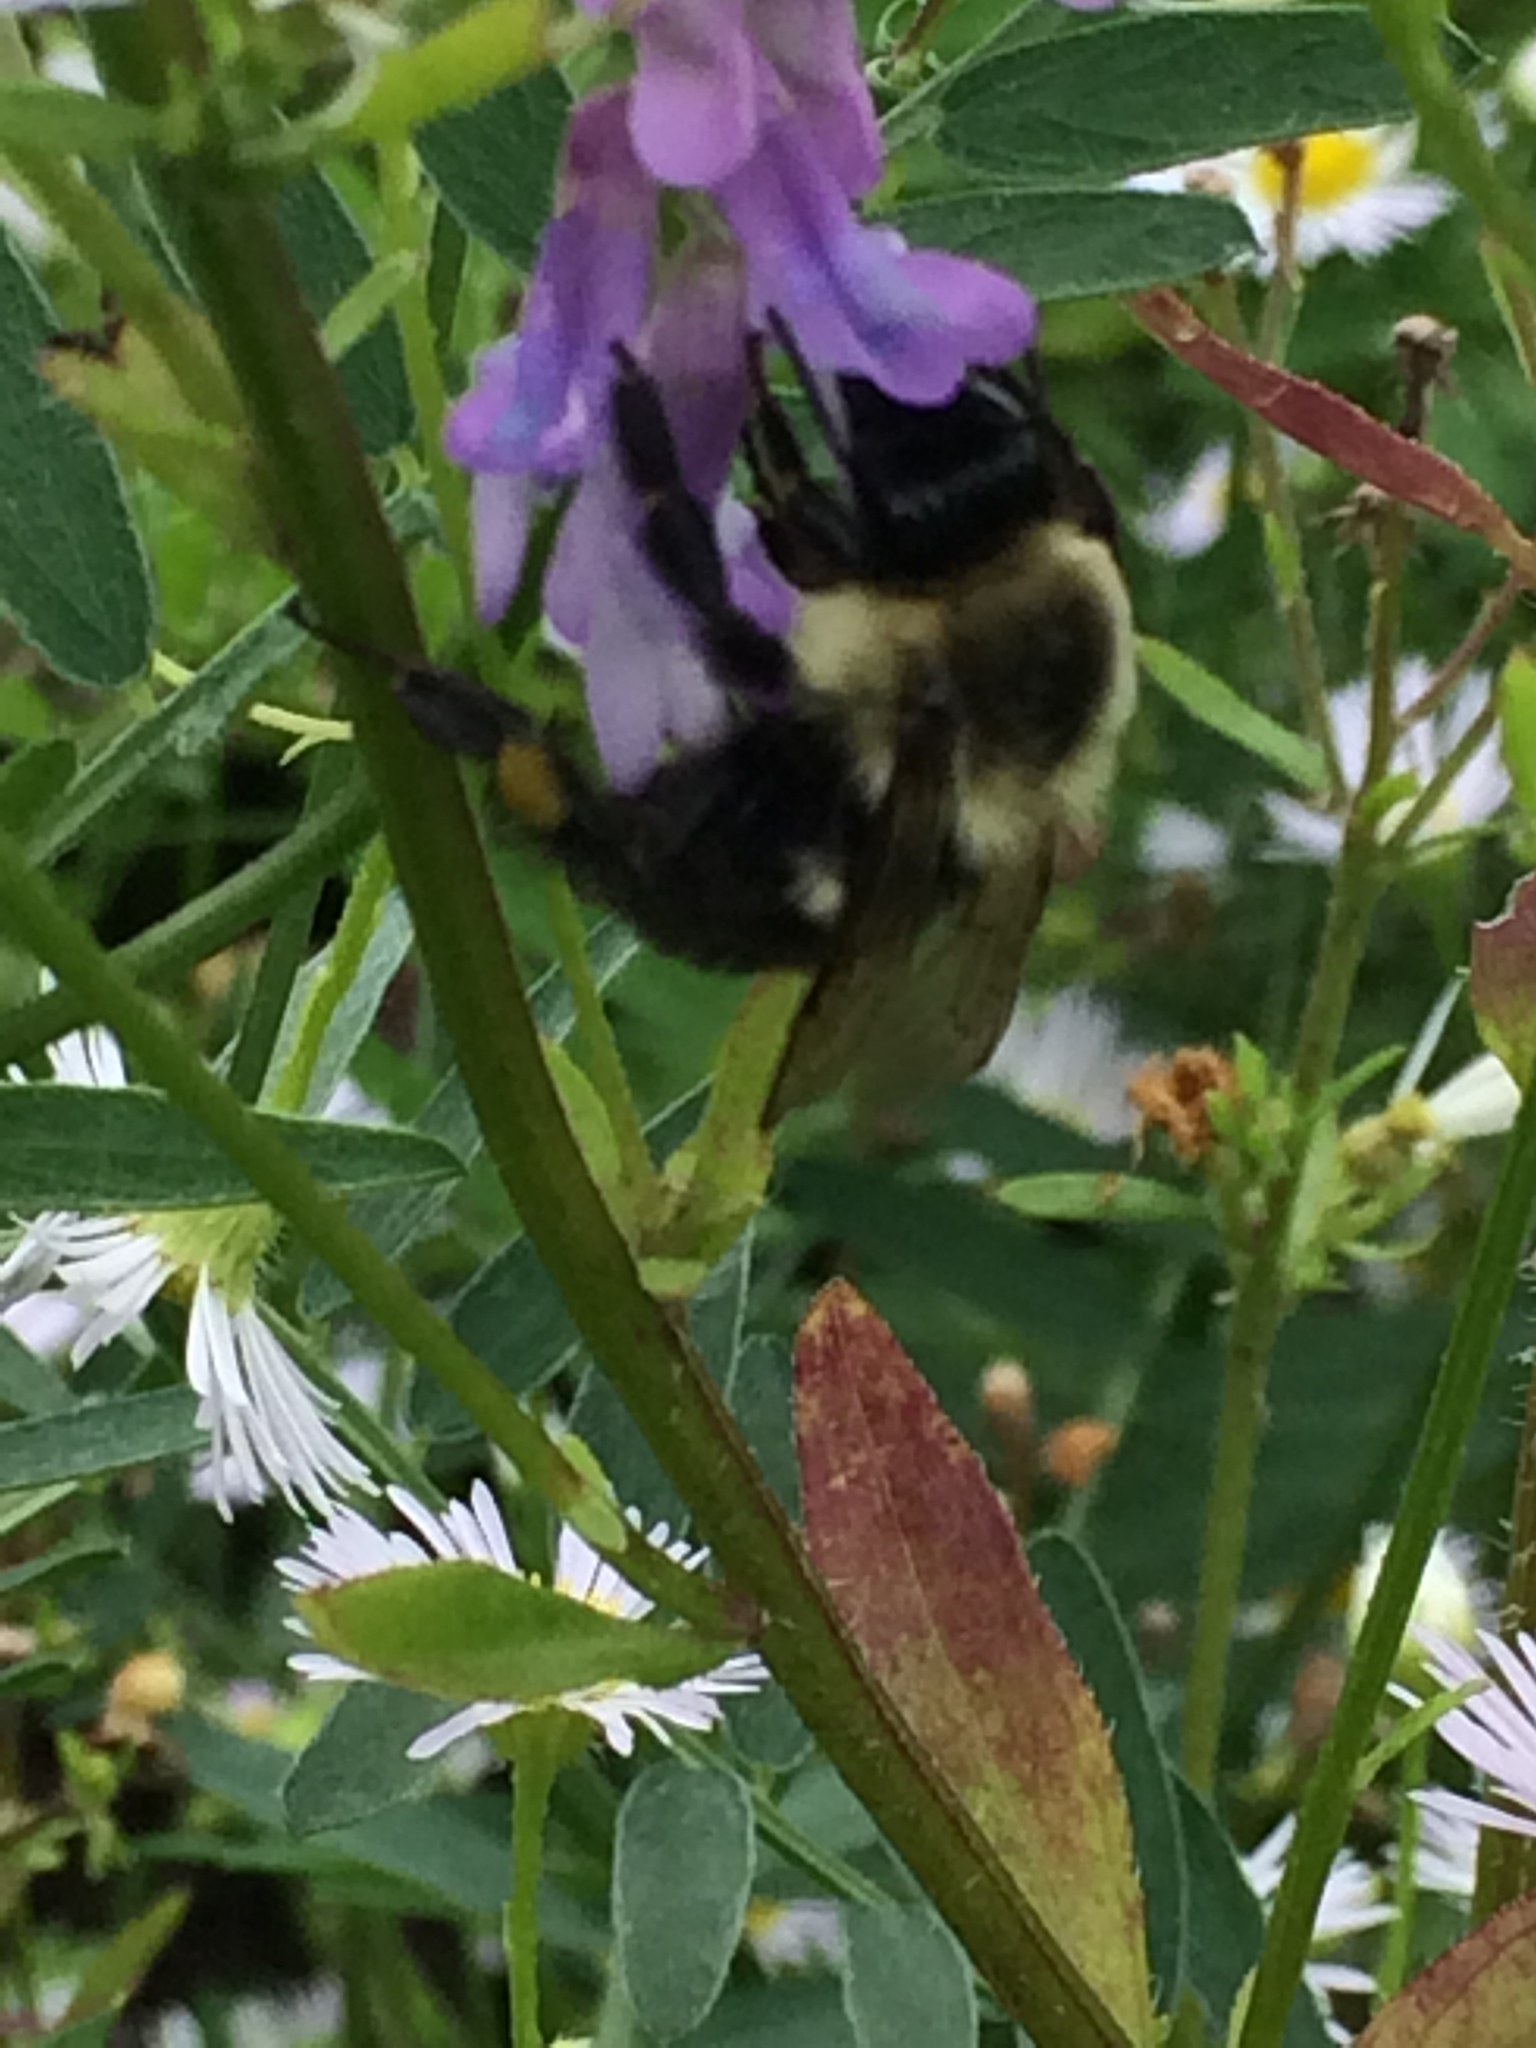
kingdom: Animalia
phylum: Arthropoda
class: Insecta
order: Hymenoptera
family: Apidae
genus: Bombus
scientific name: Bombus impatiens
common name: Common eastern bumble bee
